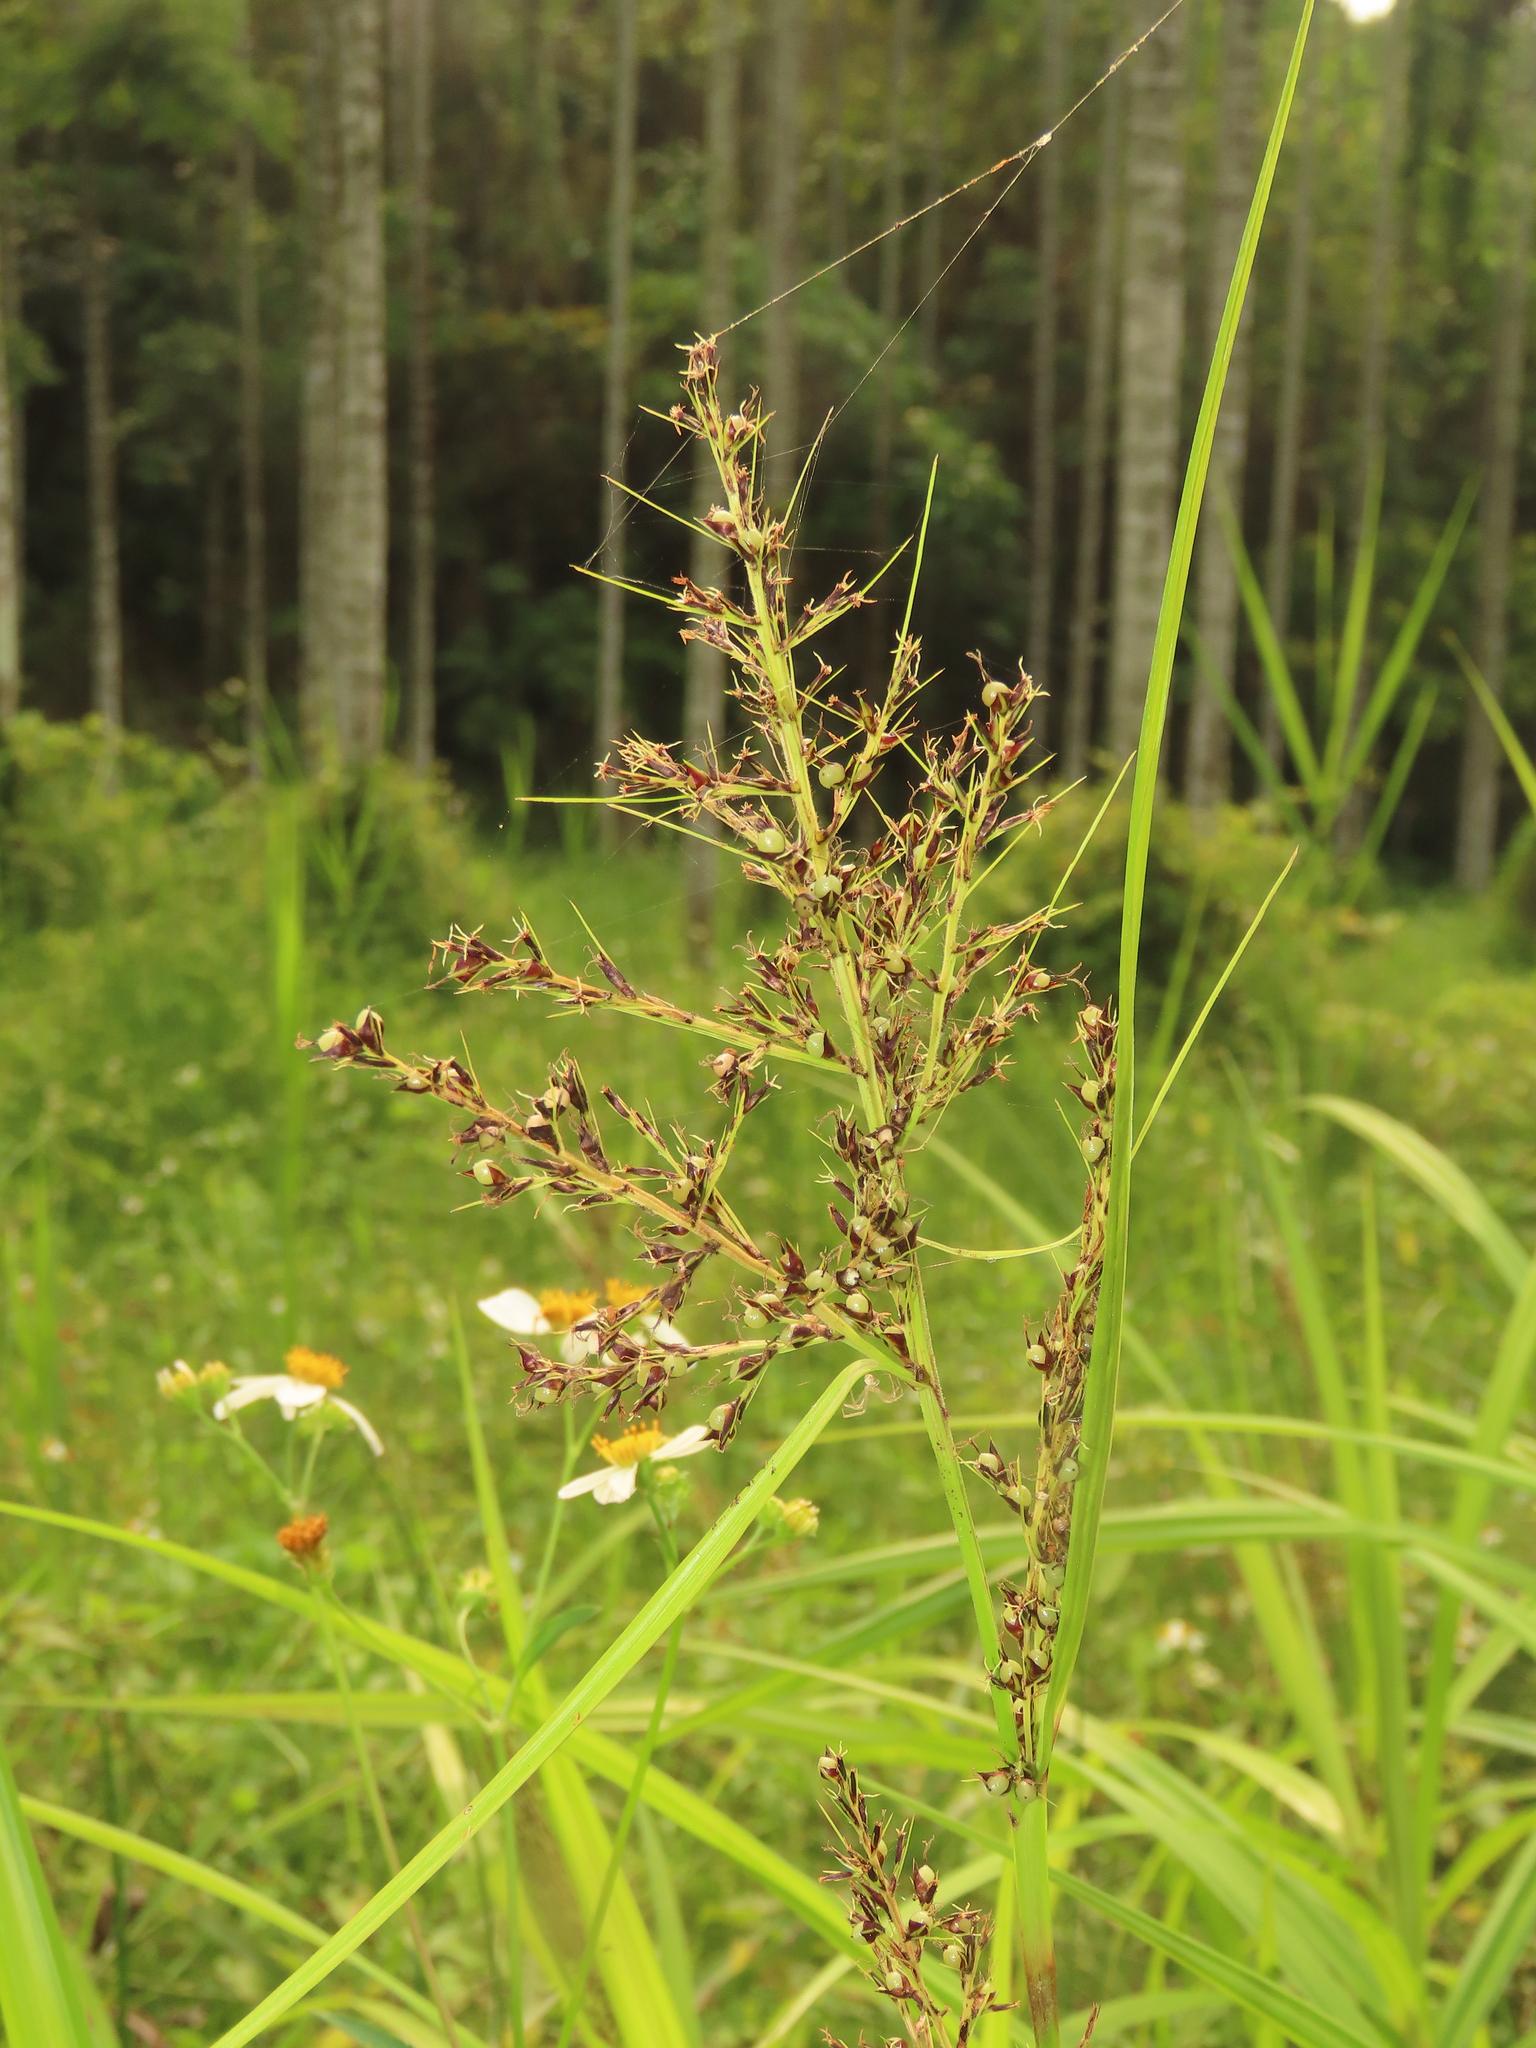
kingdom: Plantae
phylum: Tracheophyta
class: Liliopsida
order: Poales
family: Cyperaceae
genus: Scleria
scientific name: Scleria terrestris
